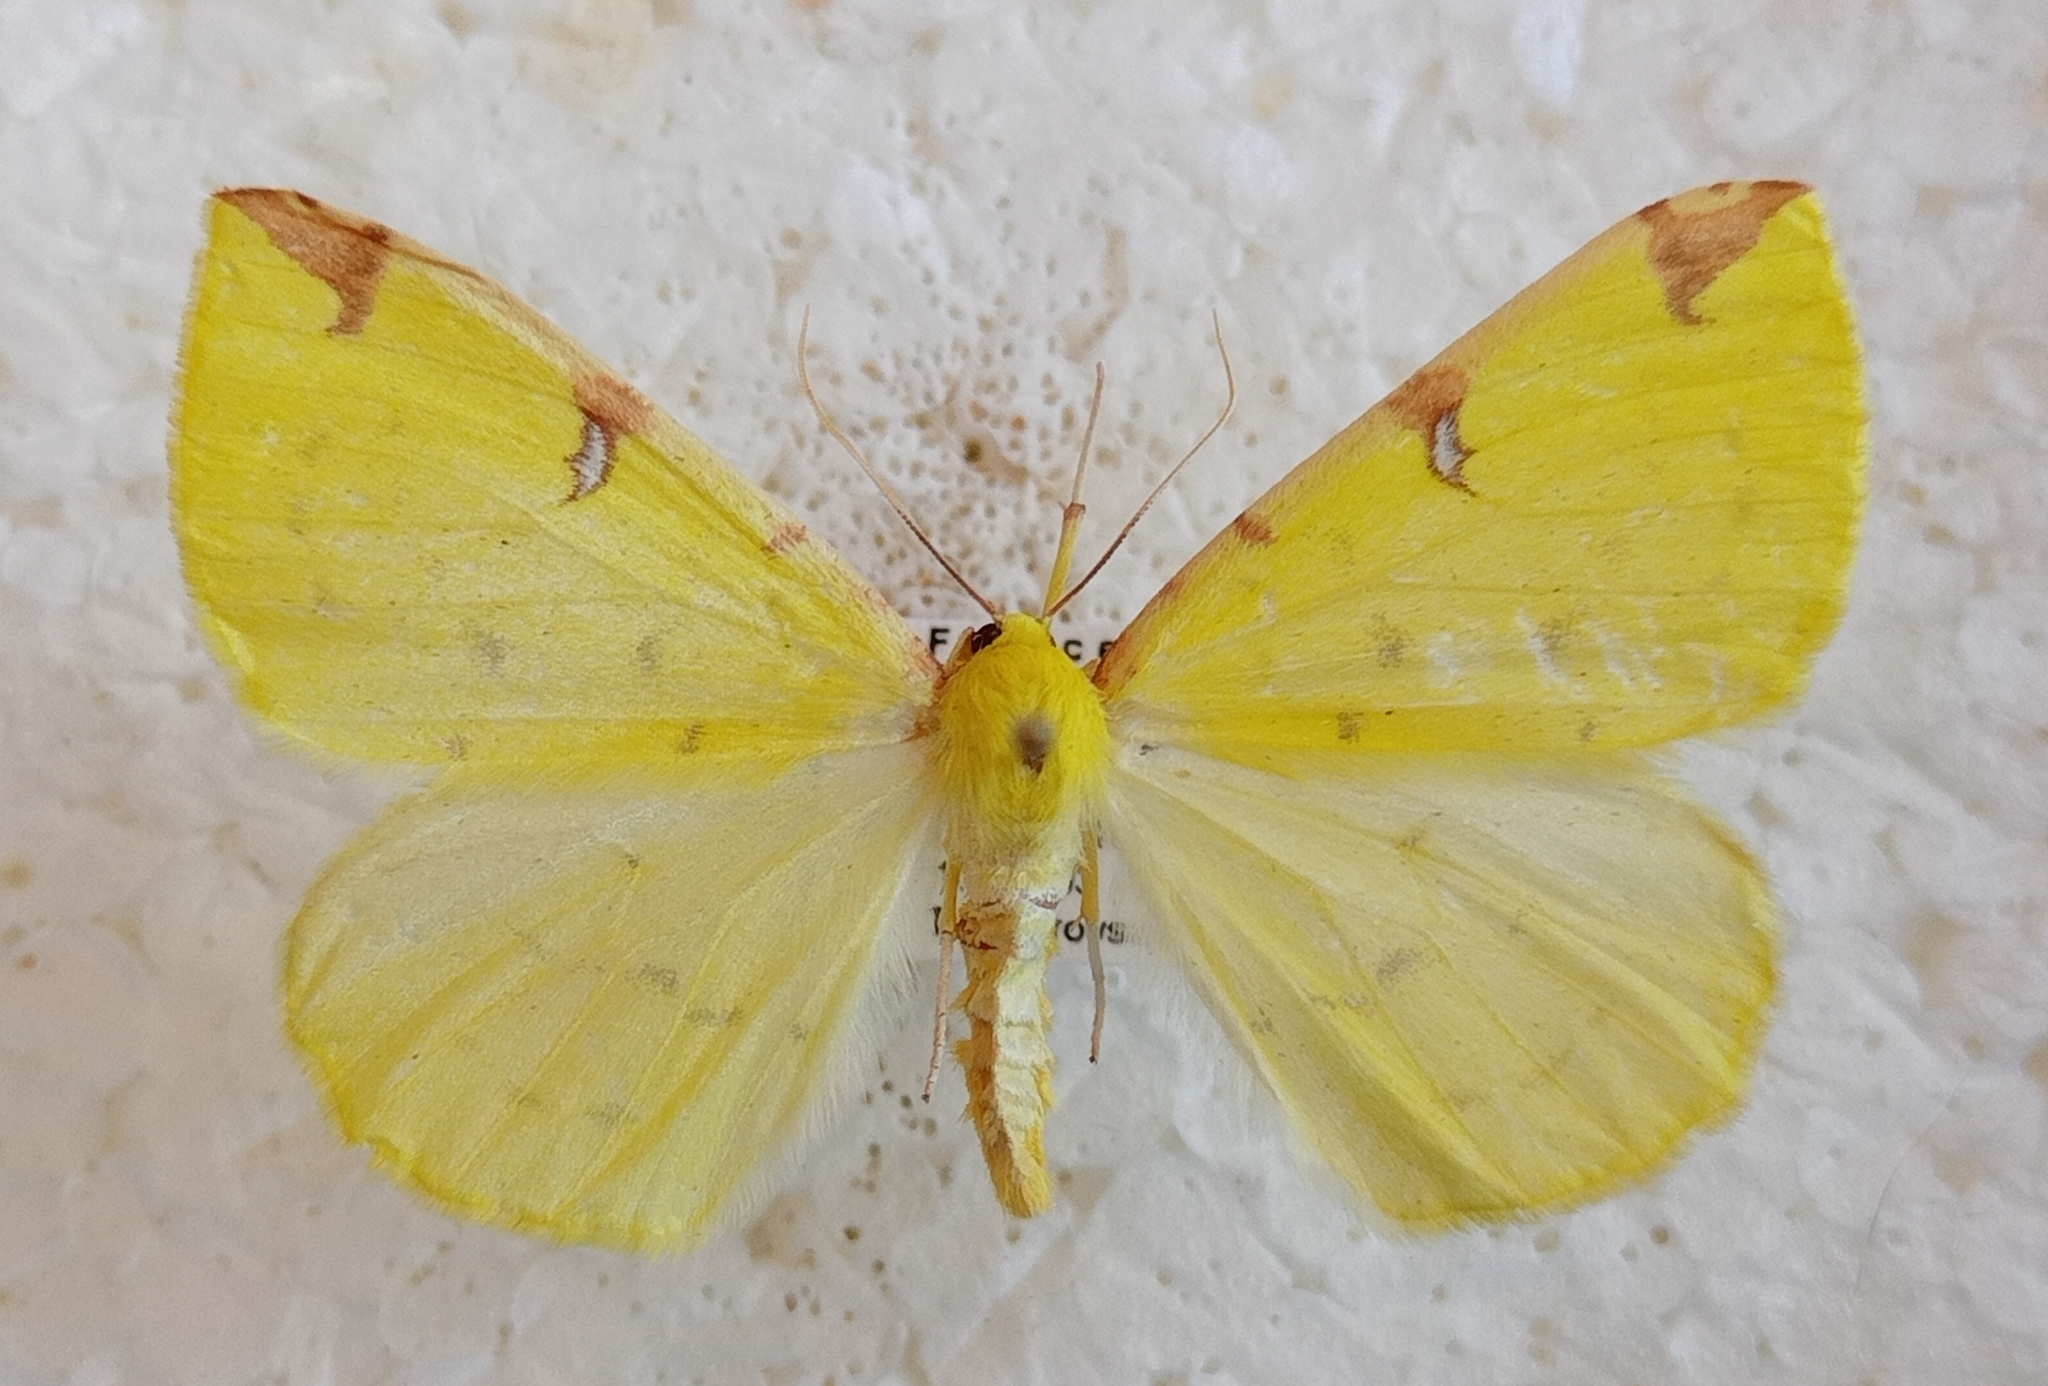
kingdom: Animalia
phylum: Arthropoda
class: Insecta
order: Lepidoptera
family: Geometridae
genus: Opisthograptis
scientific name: Opisthograptis luteolata
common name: Brimstone moth
